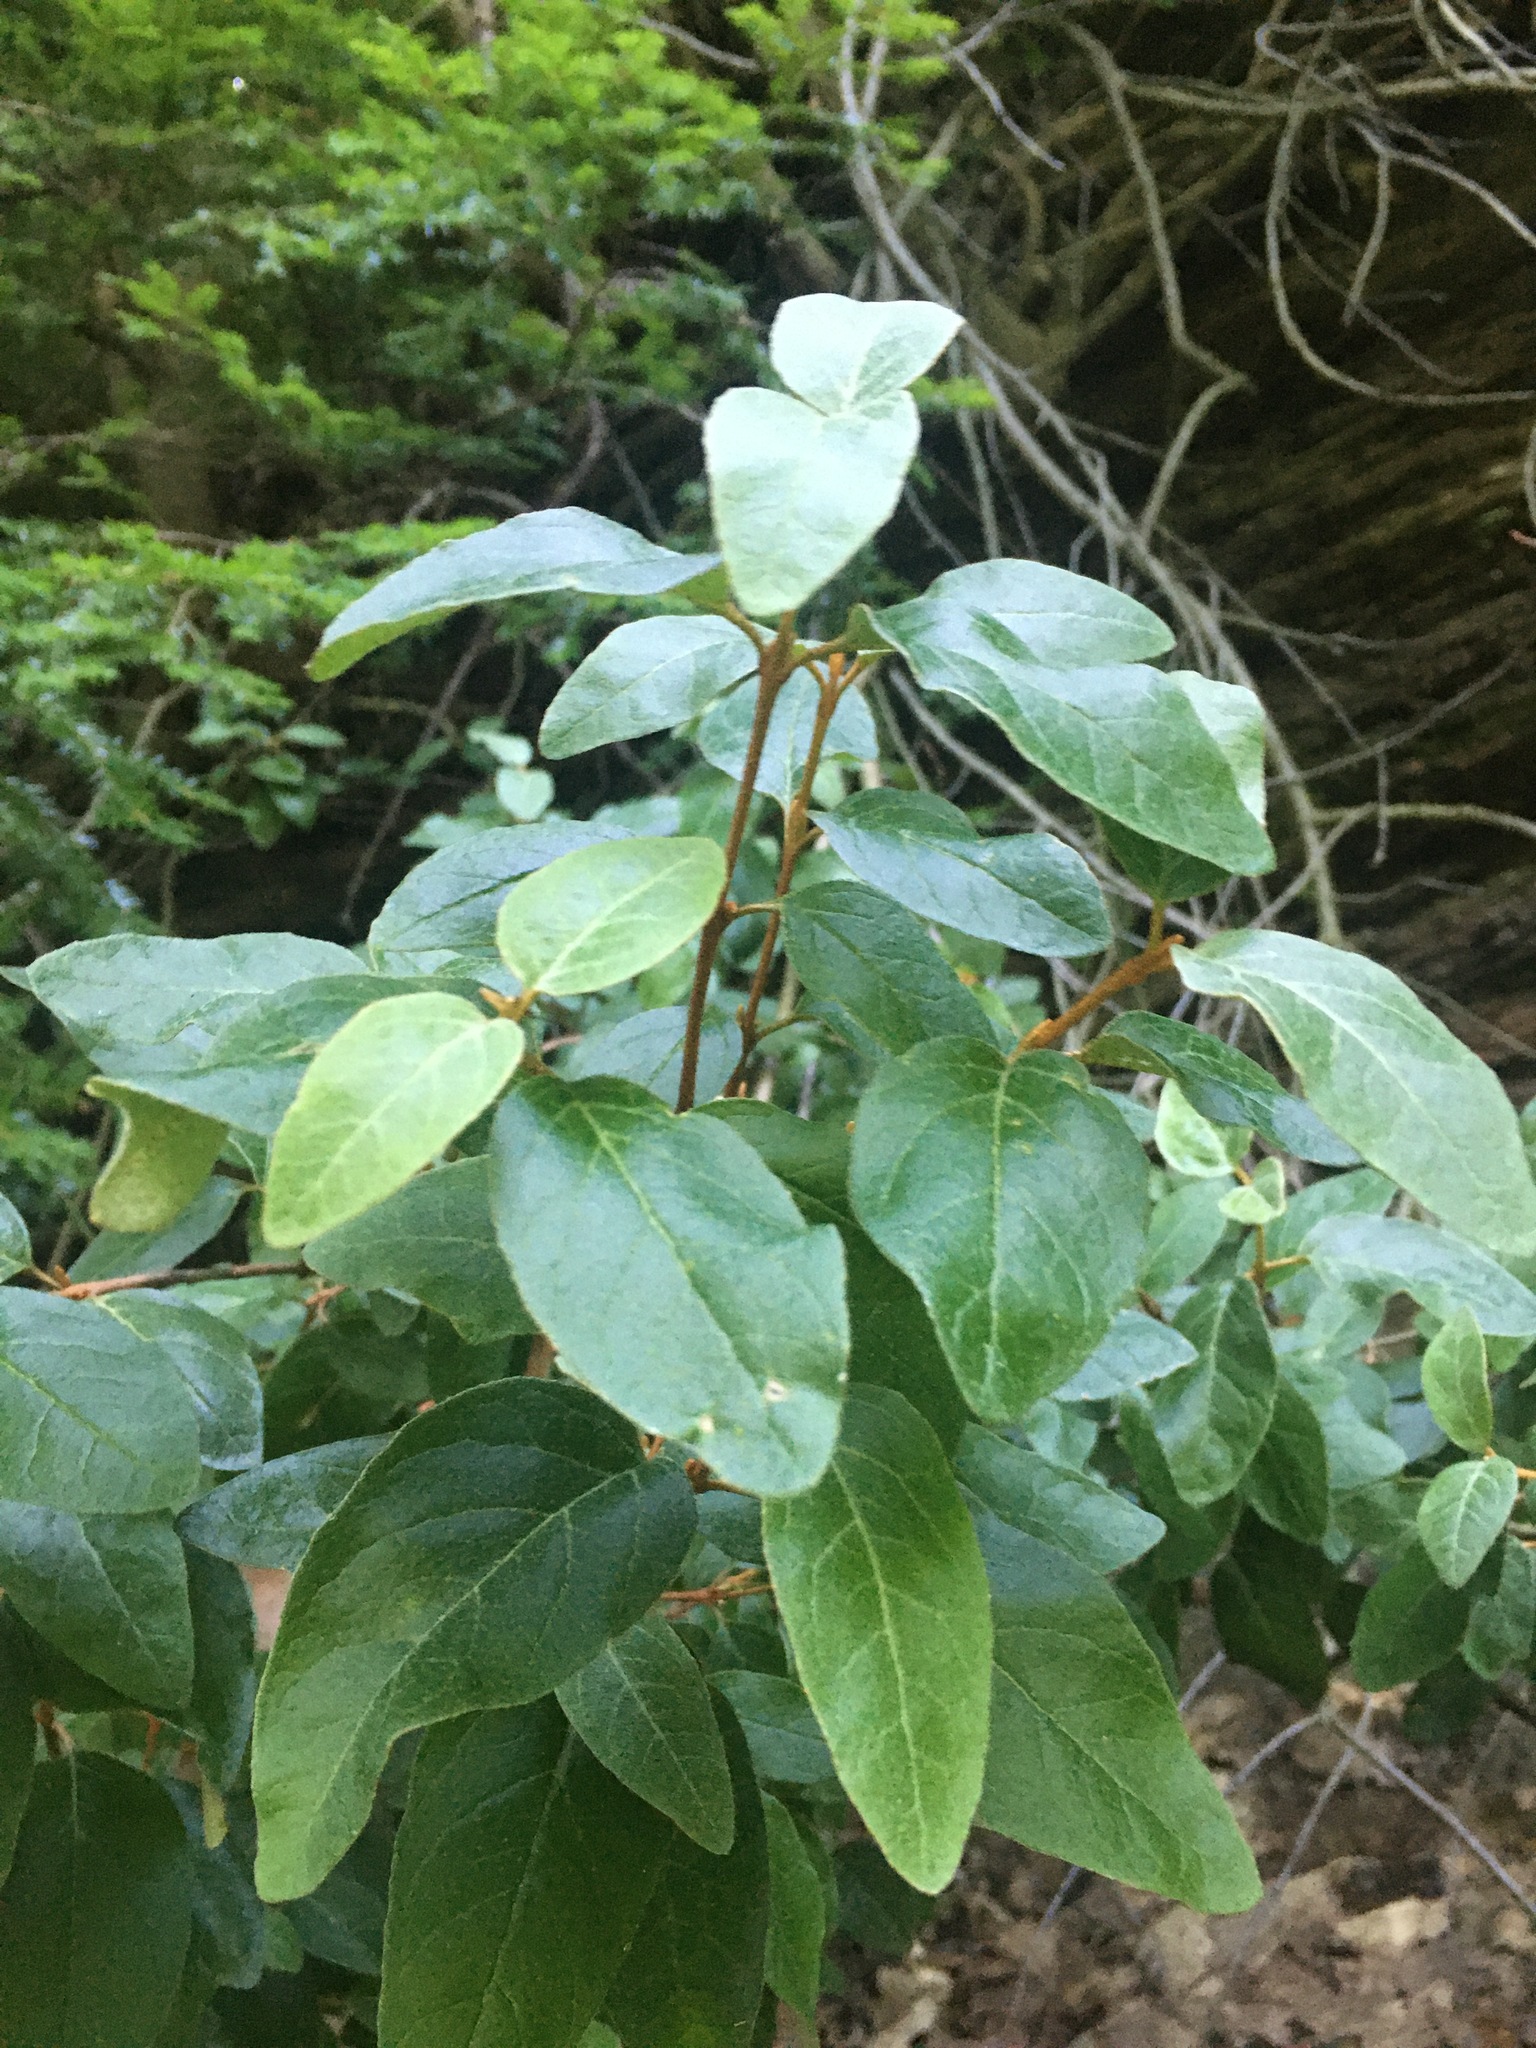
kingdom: Plantae
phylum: Tracheophyta
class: Magnoliopsida
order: Rosales
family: Elaeagnaceae
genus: Shepherdia
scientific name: Shepherdia canadensis
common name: Soapberry
